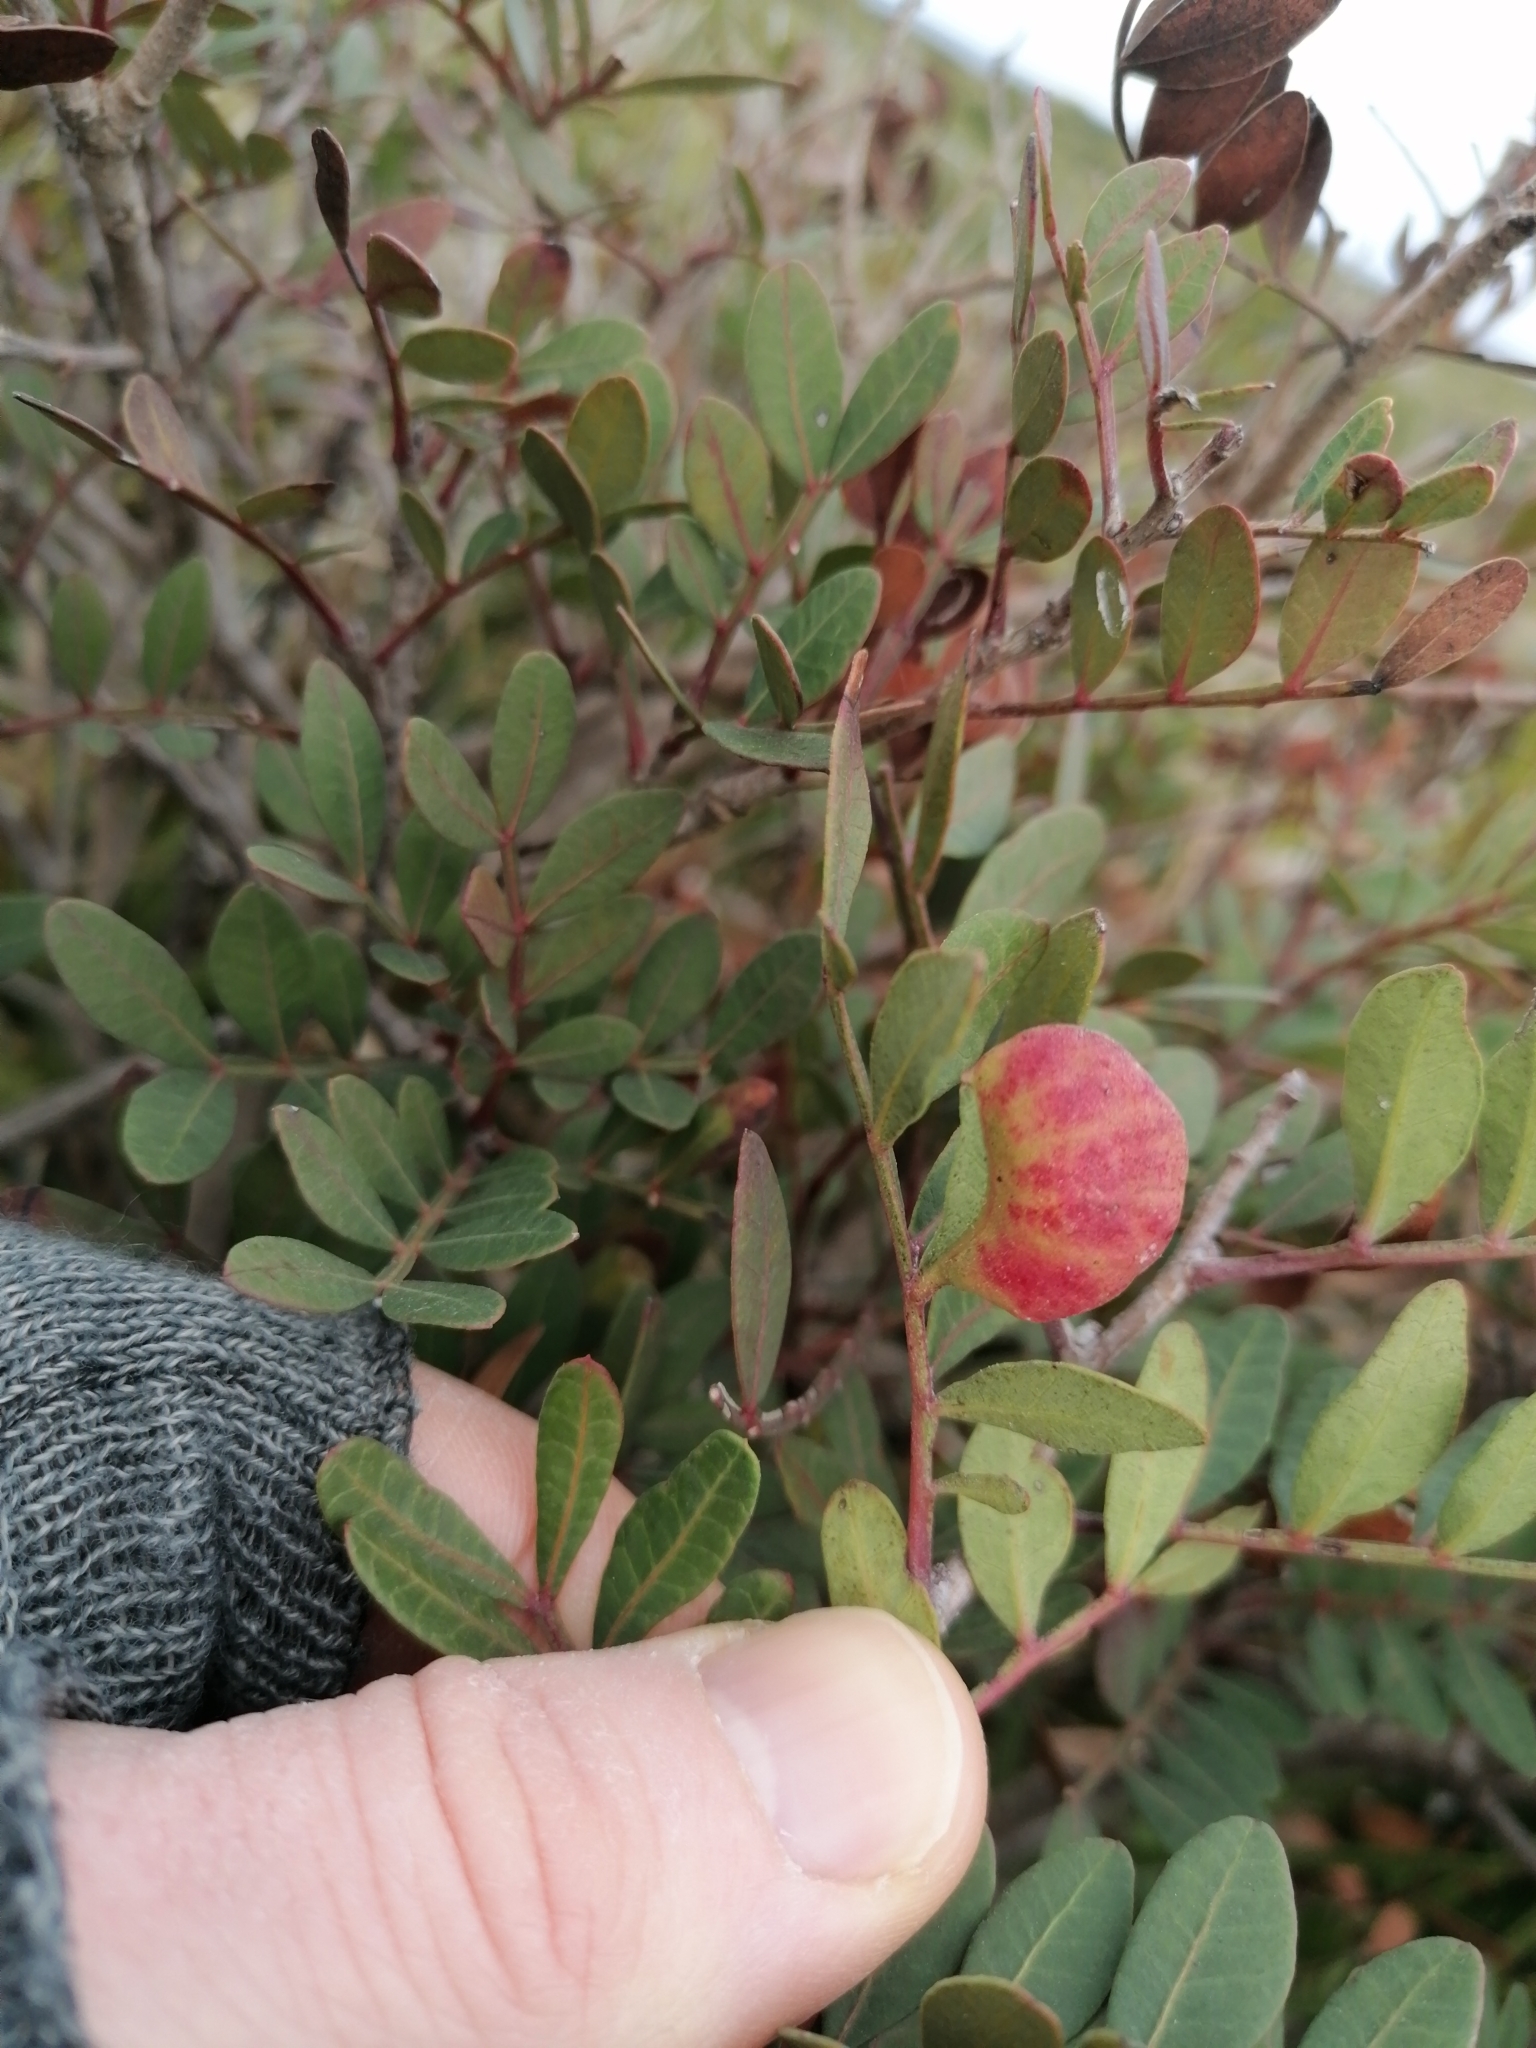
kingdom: Animalia
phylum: Arthropoda
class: Insecta
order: Hemiptera
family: Aphididae
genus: Aploneura
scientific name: Aploneura lentisci
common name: Mealy grass root aphid
